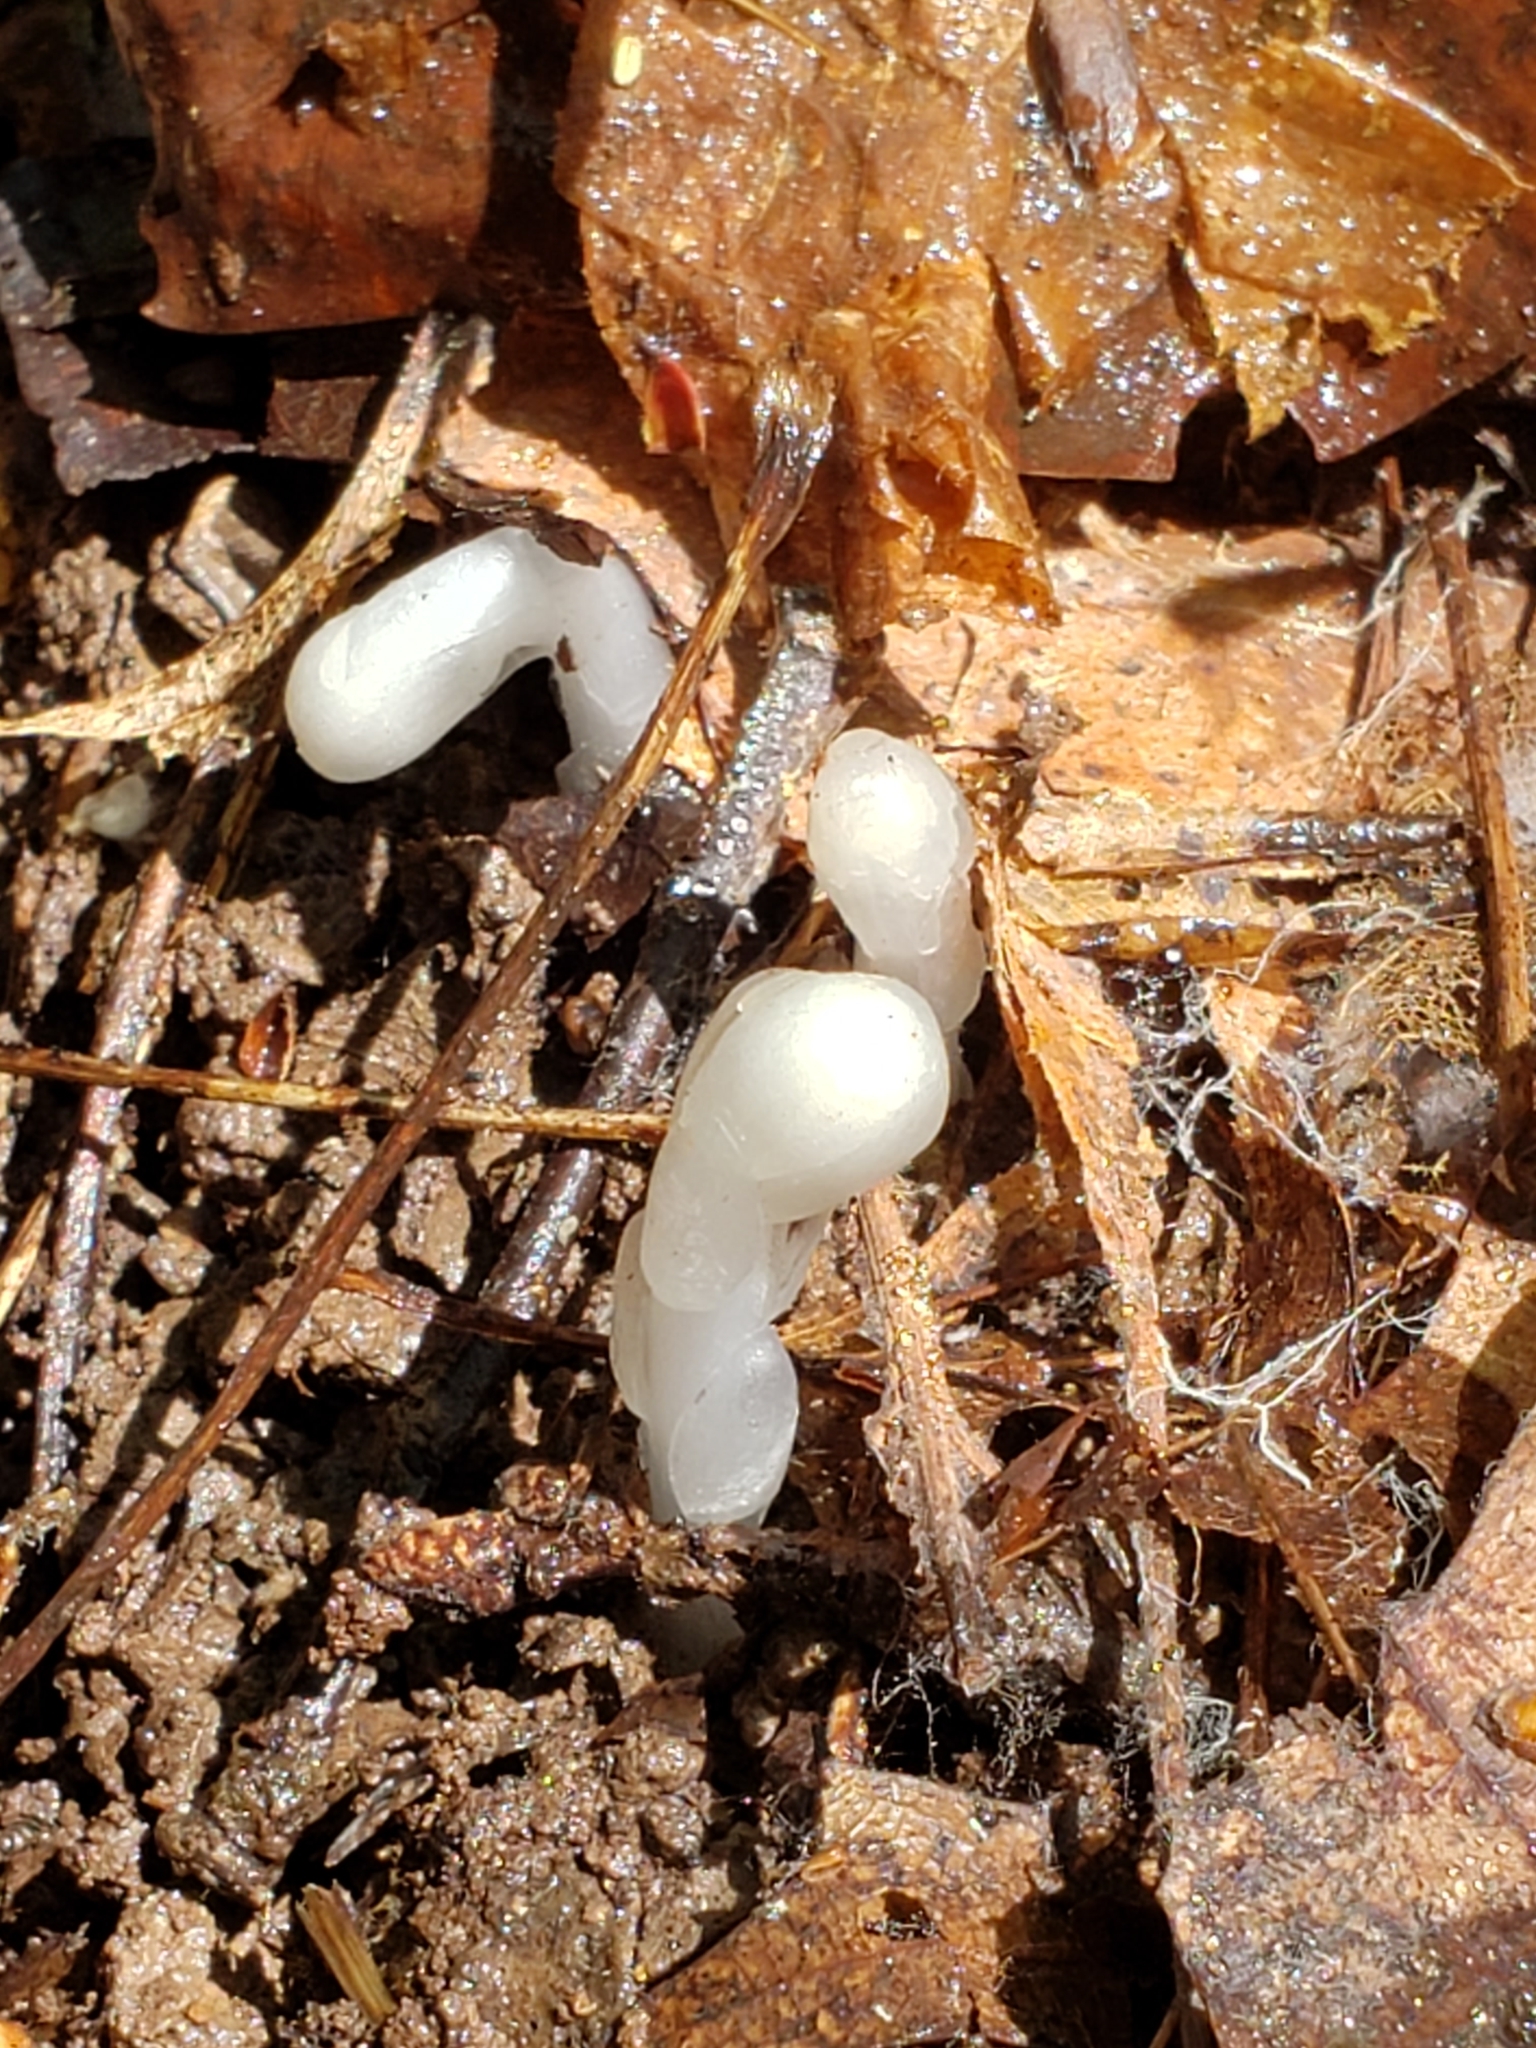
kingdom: Plantae
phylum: Tracheophyta
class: Magnoliopsida
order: Ericales
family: Ericaceae
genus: Monotropa
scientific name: Monotropa uniflora
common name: Convulsion root
